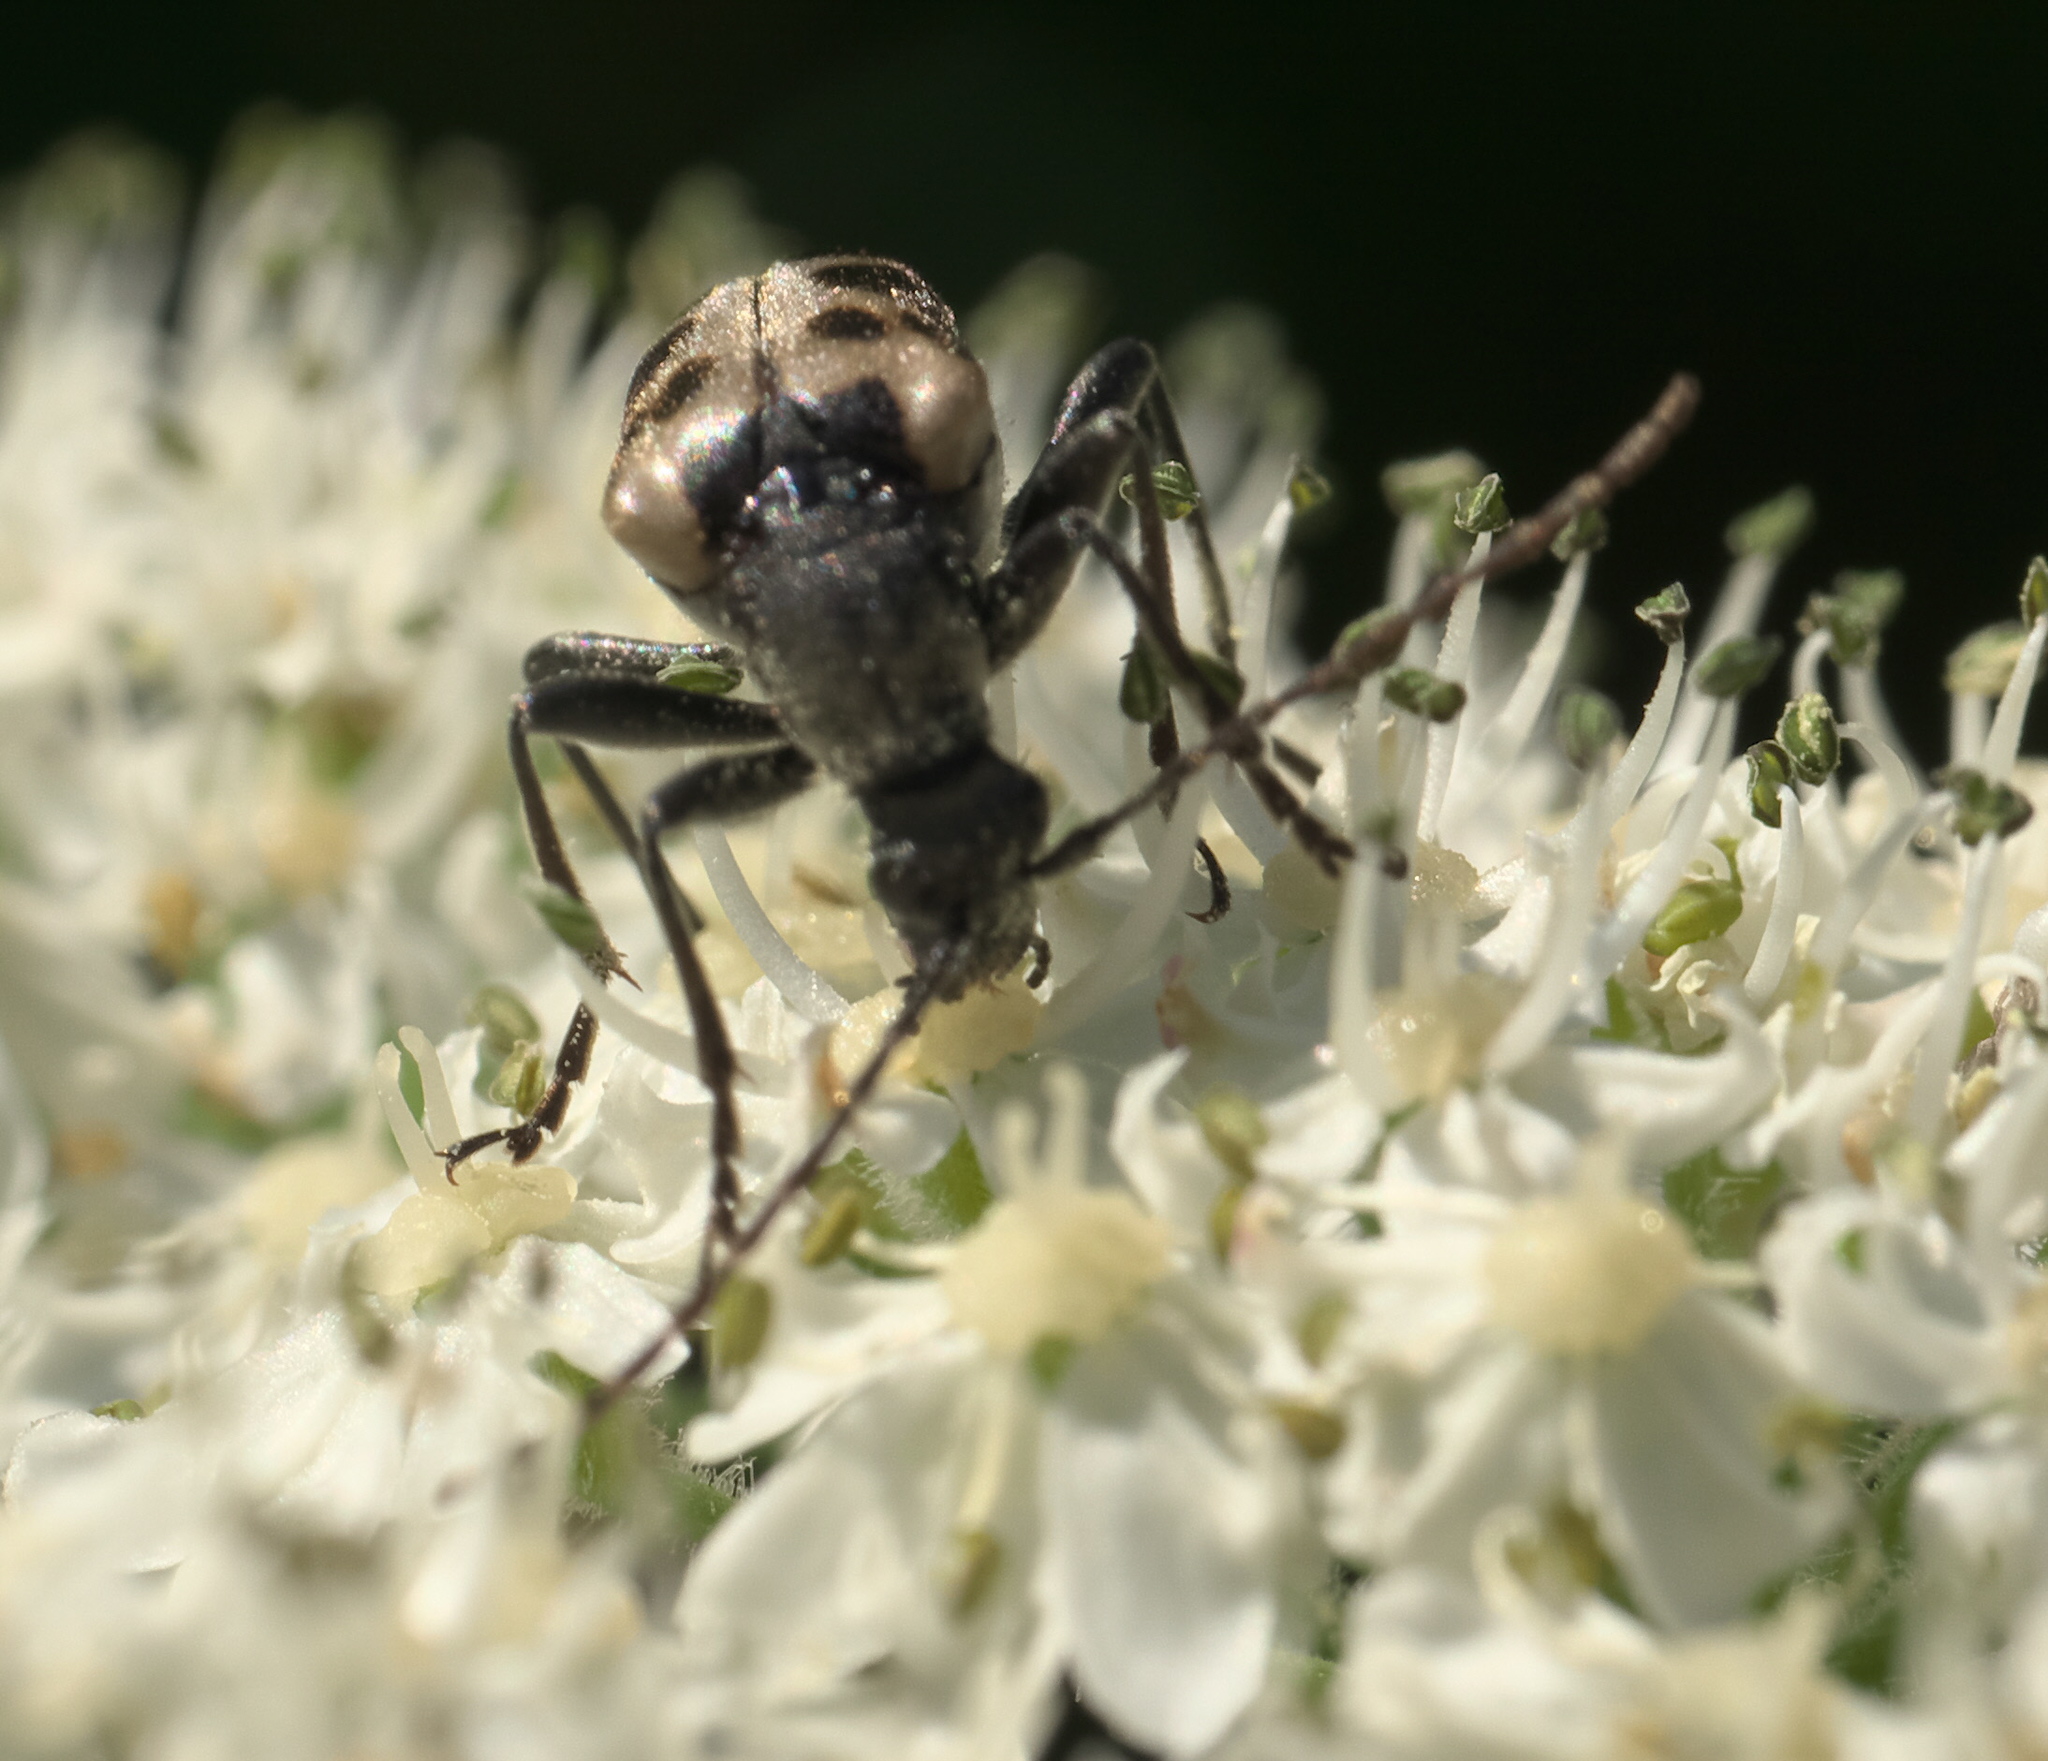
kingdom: Animalia
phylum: Arthropoda
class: Insecta
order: Coleoptera
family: Cerambycidae
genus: Evodinus
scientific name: Evodinus monticola
